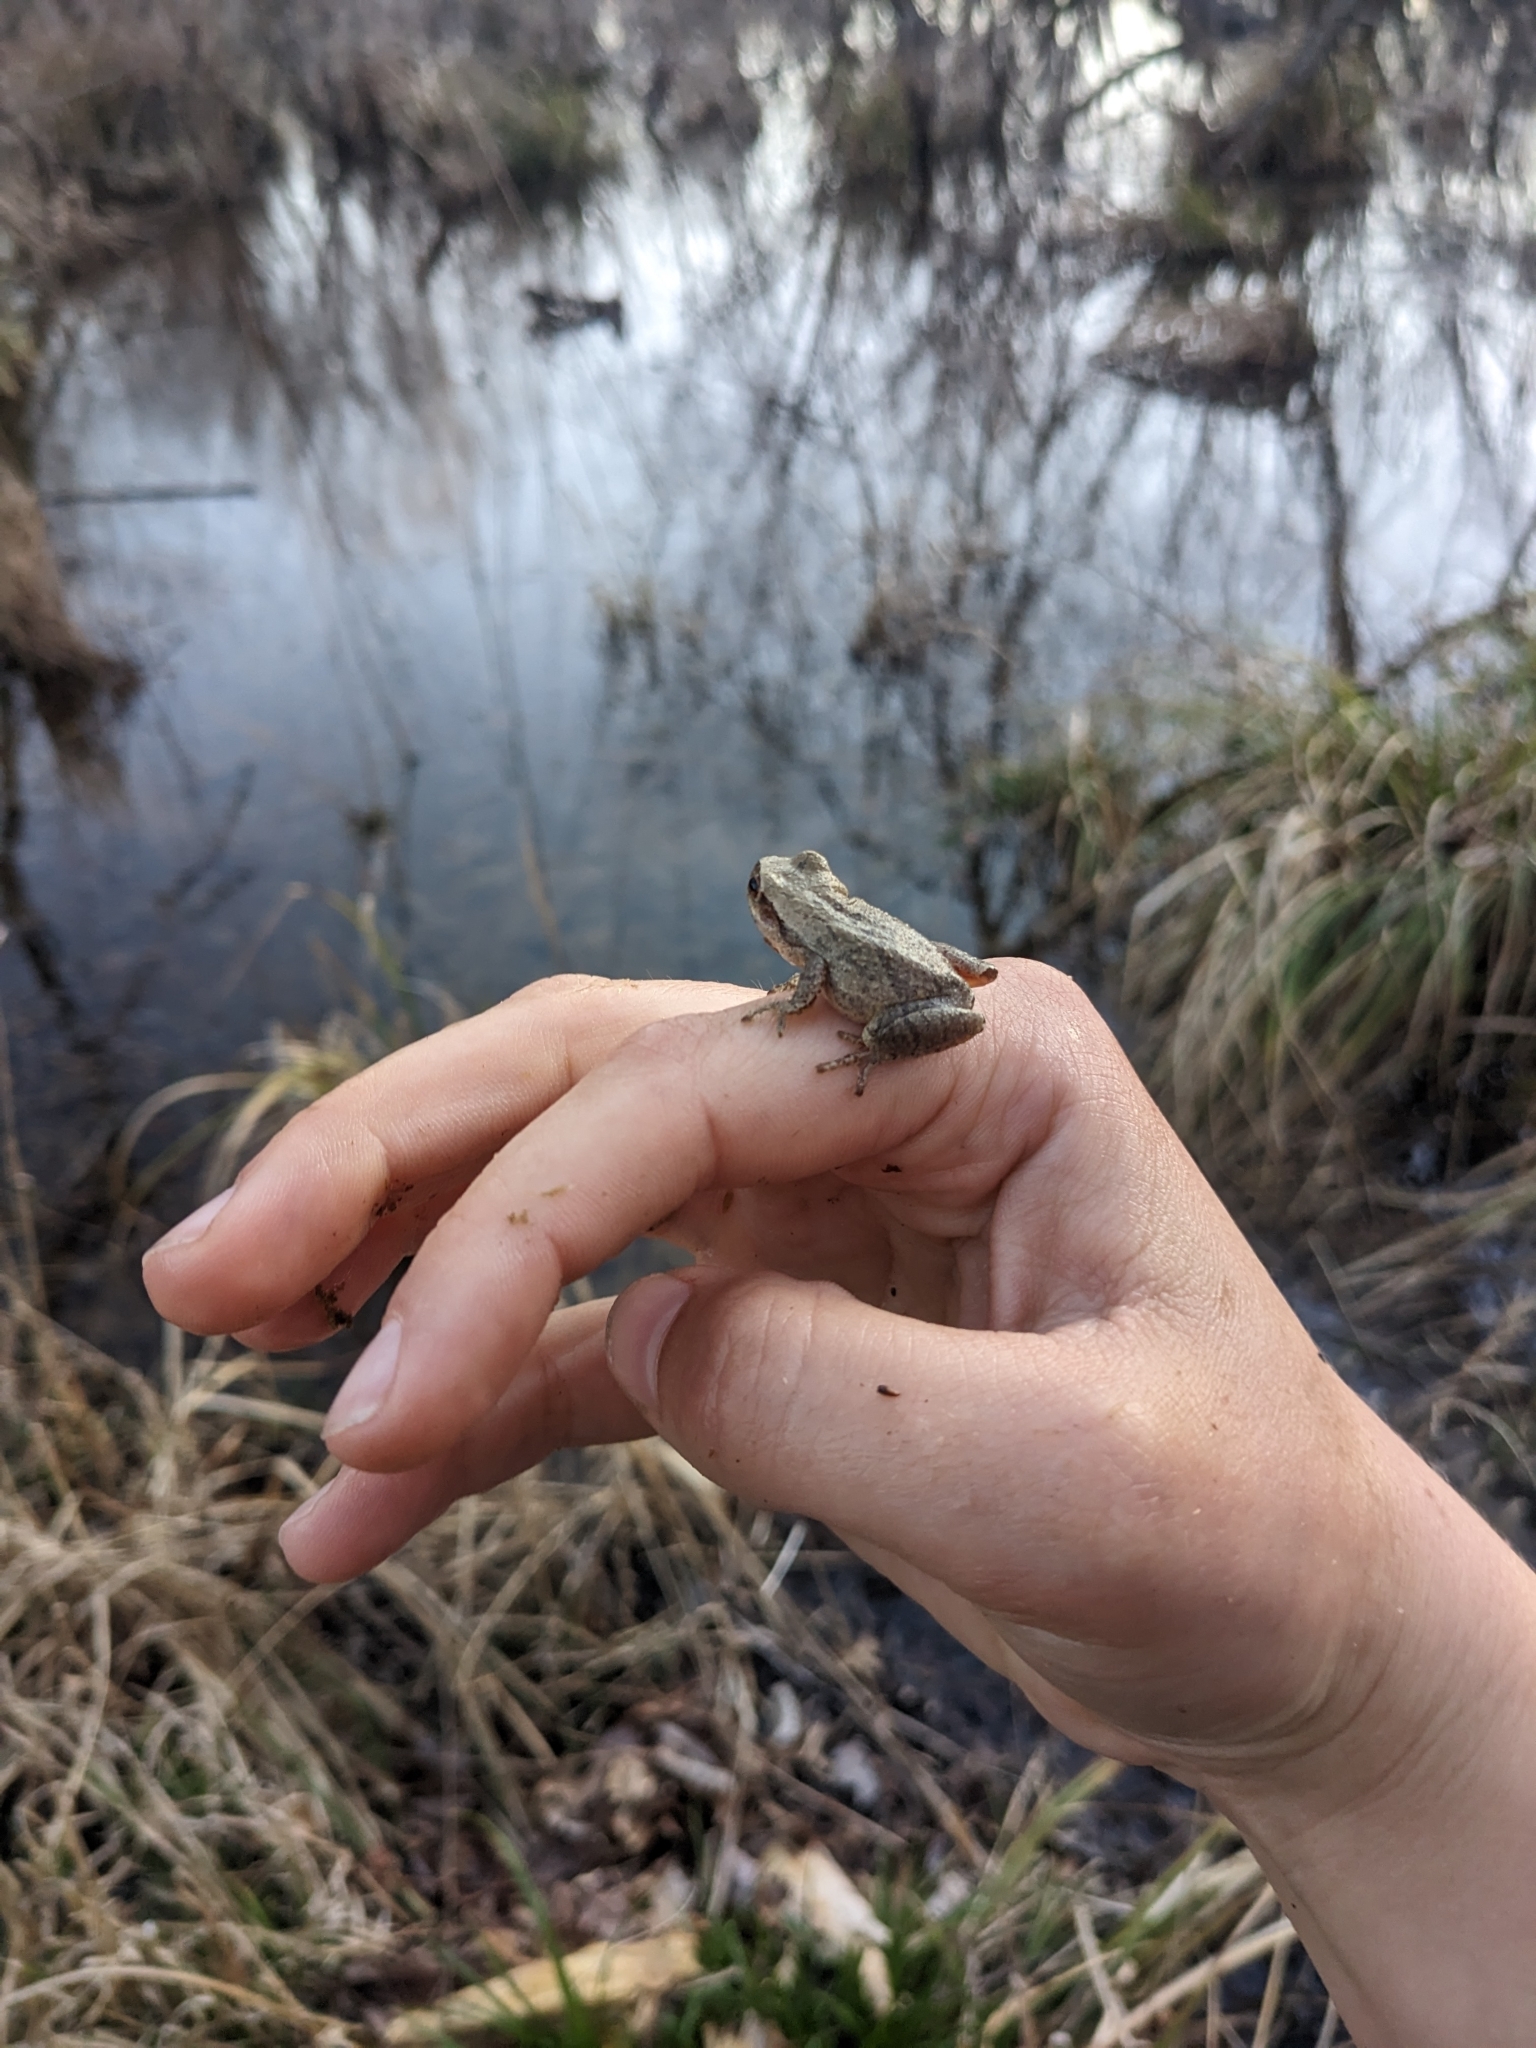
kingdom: Animalia
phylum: Chordata
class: Amphibia
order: Anura
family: Hylidae
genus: Pseudacris
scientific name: Pseudacris crucifer
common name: Spring peeper
